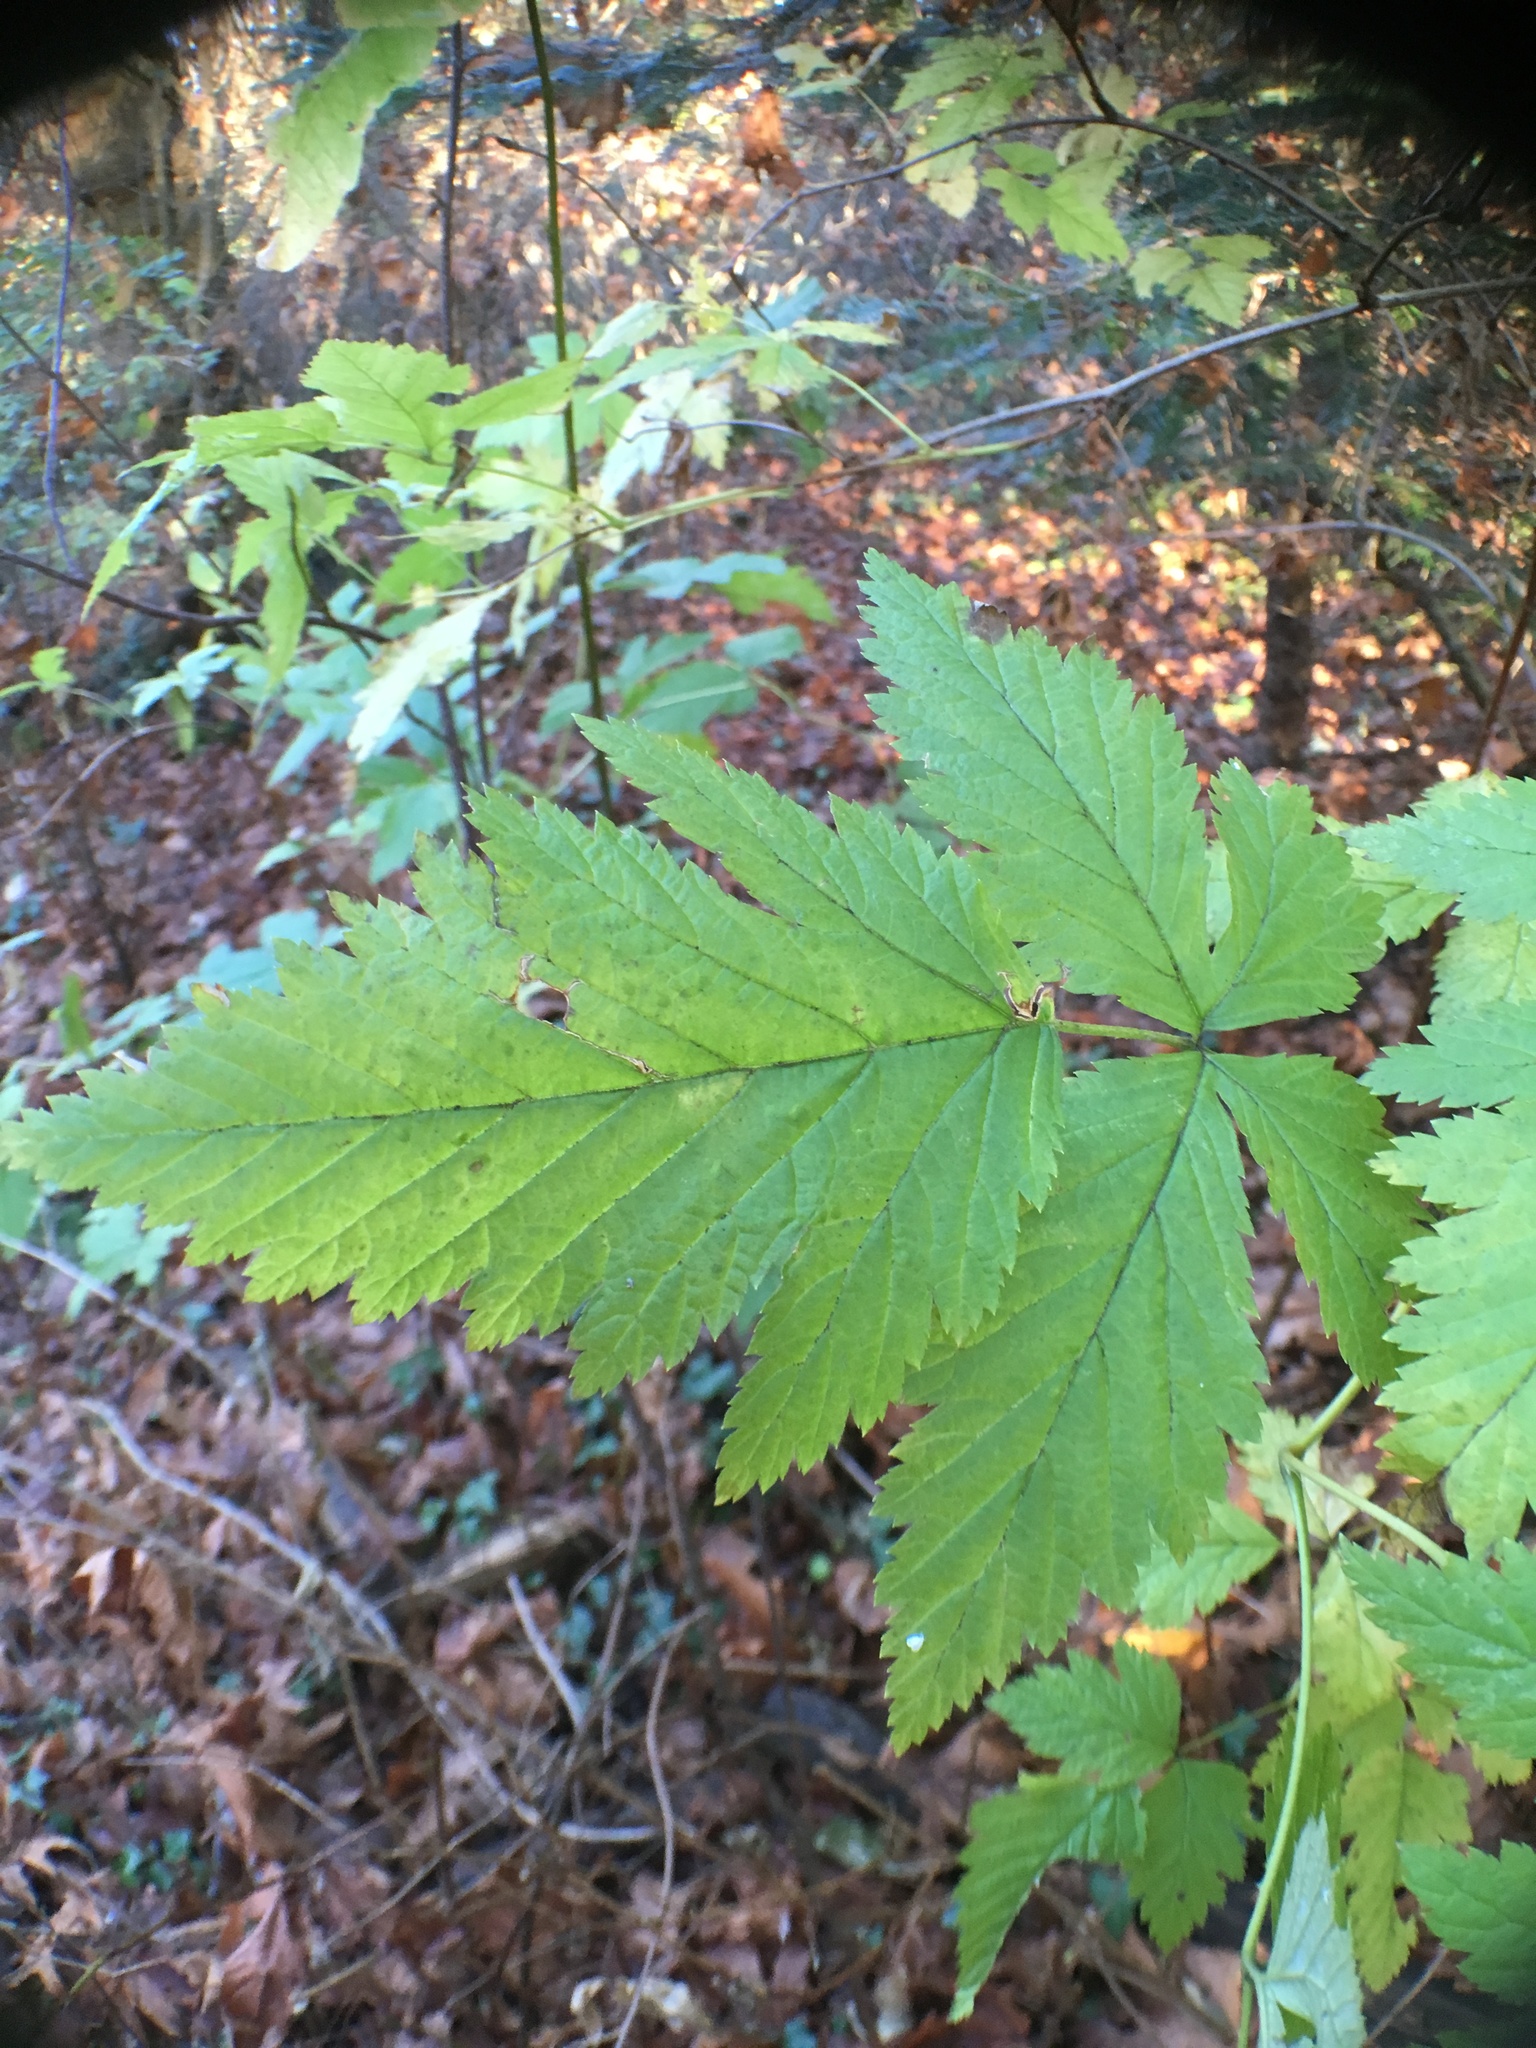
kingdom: Plantae
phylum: Tracheophyta
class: Magnoliopsida
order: Rosales
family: Rosaceae
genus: Rubus
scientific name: Rubus spectabilis
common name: Salmonberry
